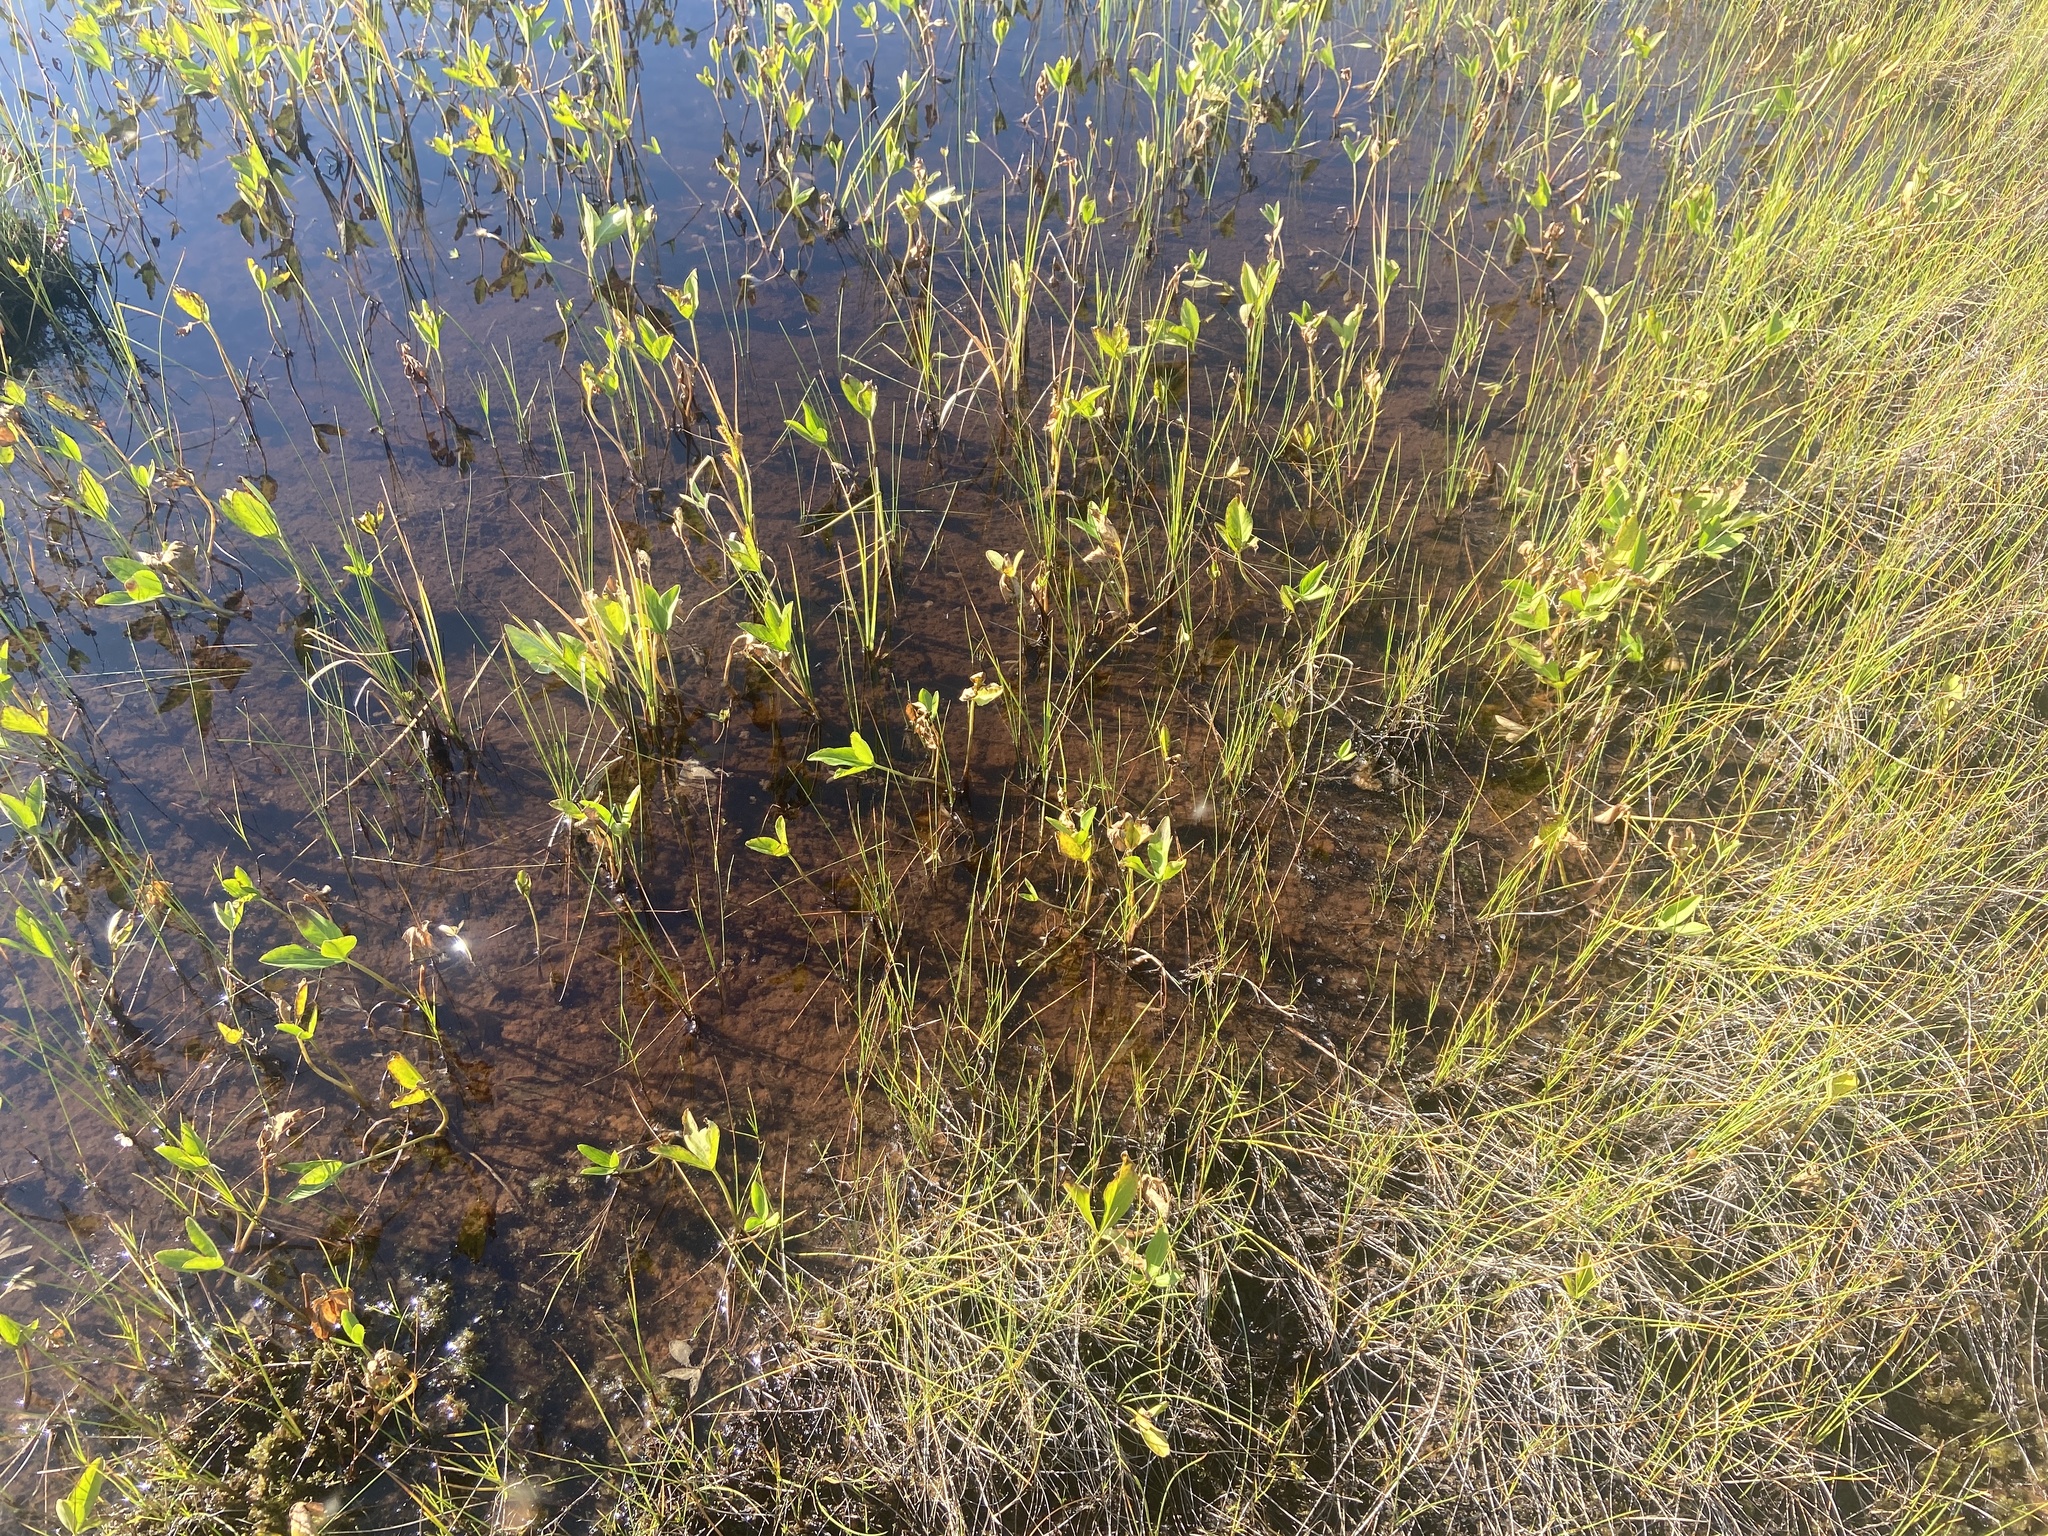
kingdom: Plantae
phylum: Tracheophyta
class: Magnoliopsida
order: Asterales
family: Menyanthaceae
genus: Menyanthes
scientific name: Menyanthes trifoliata
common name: Bogbean
